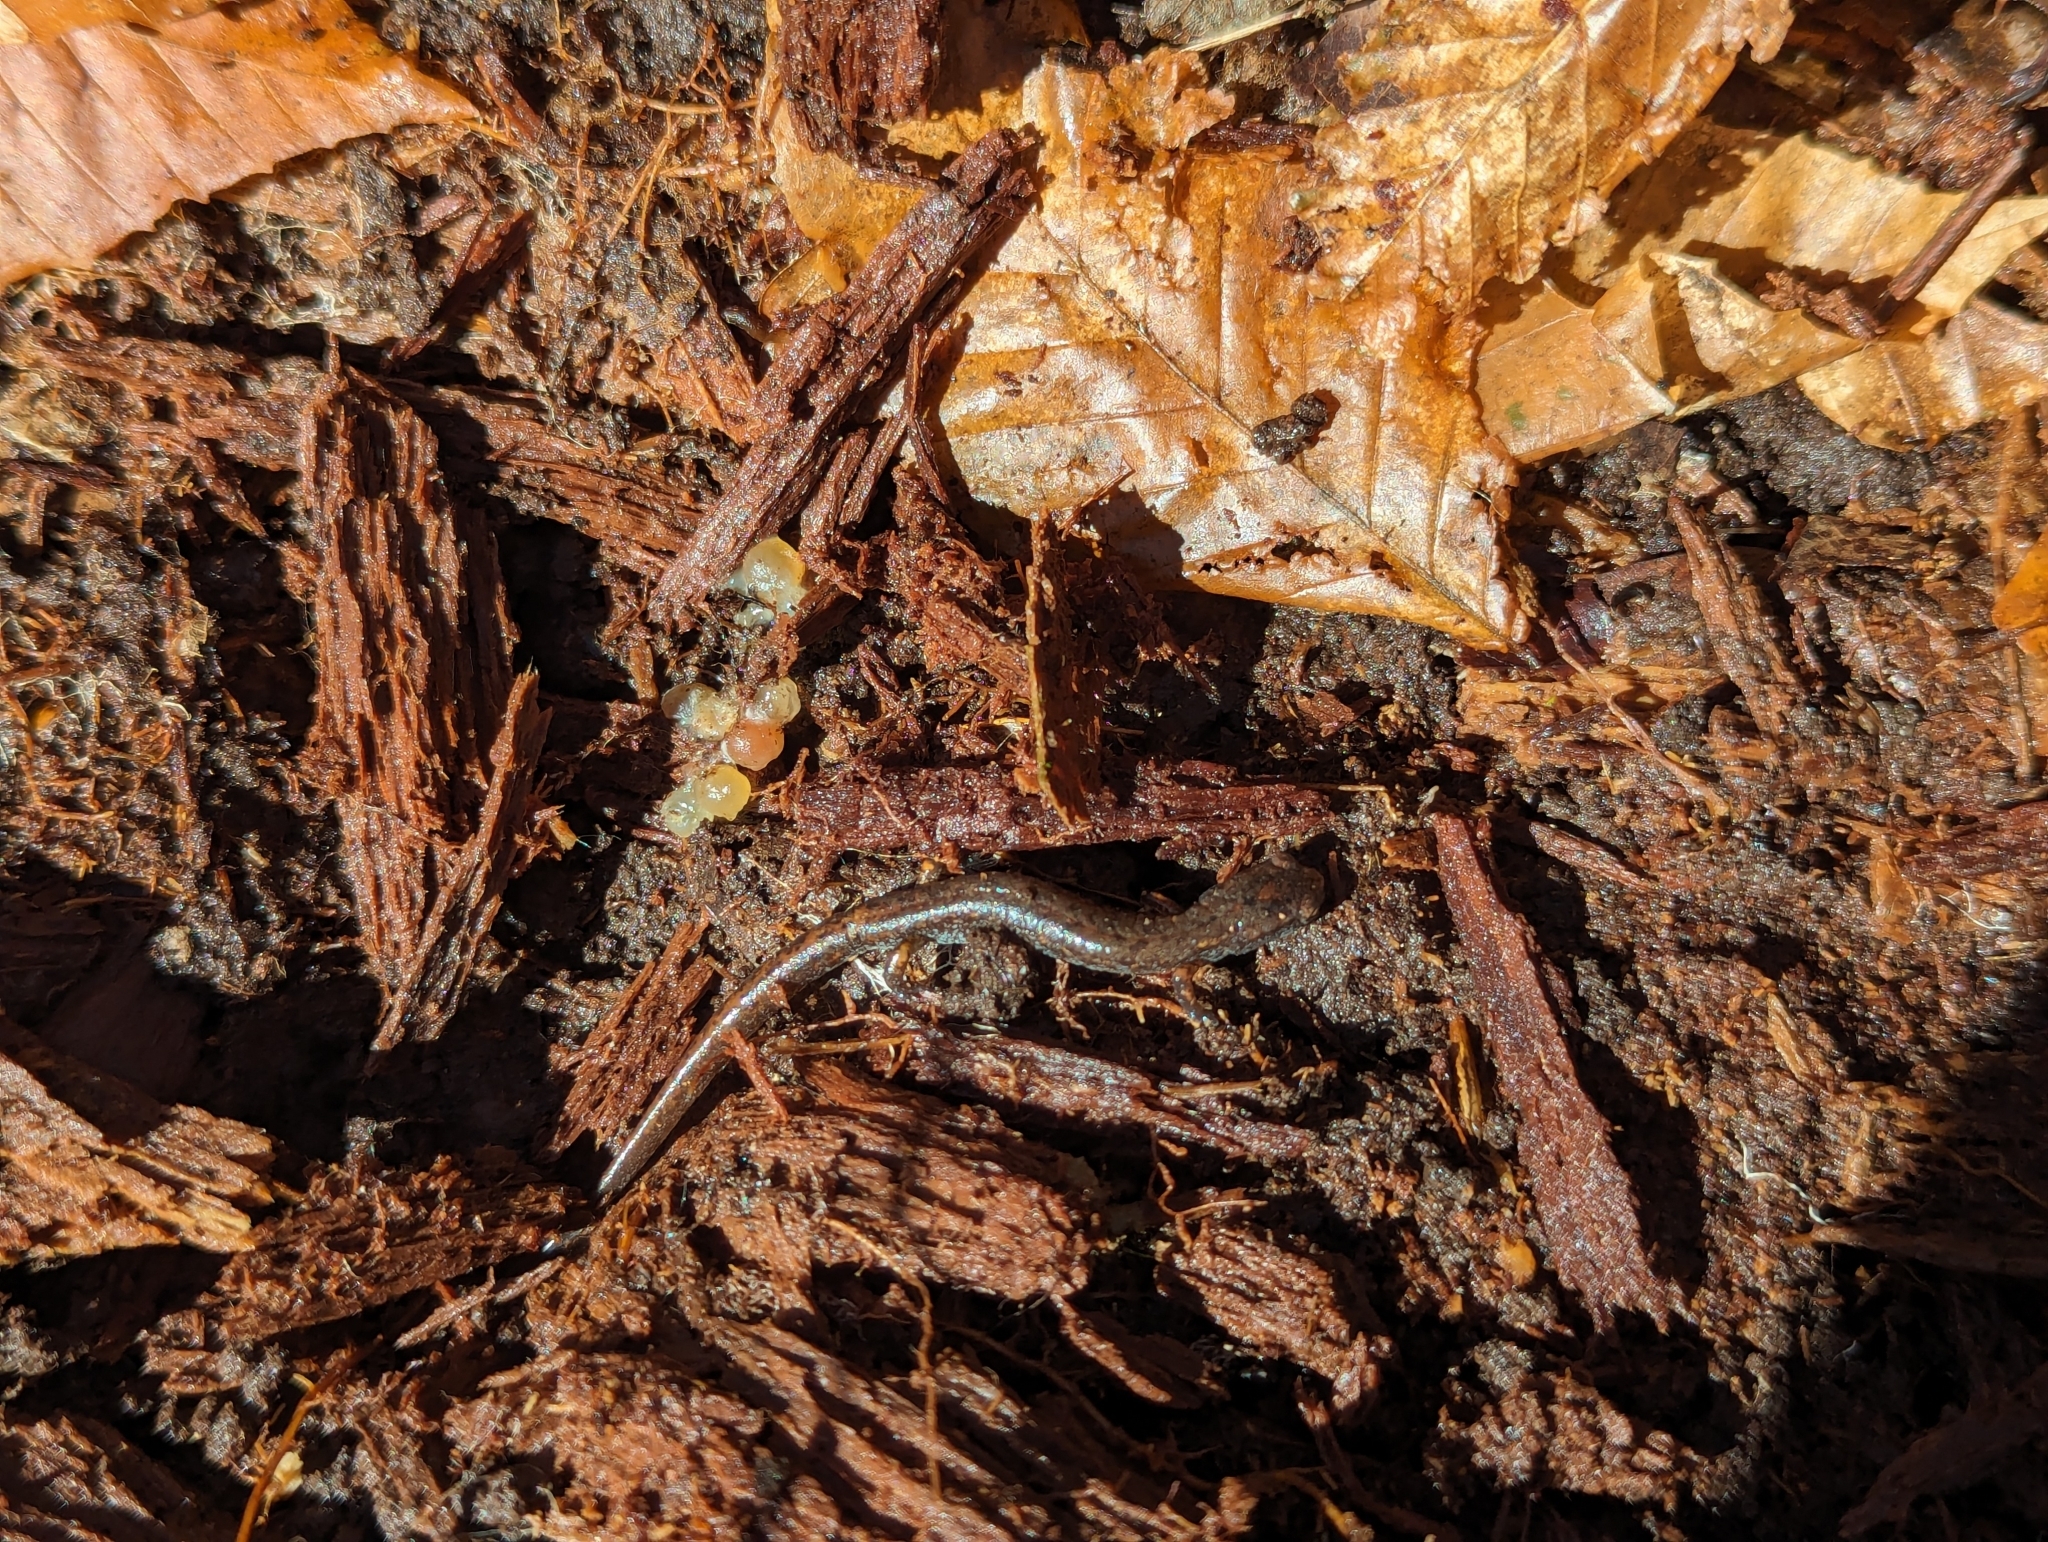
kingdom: Animalia
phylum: Chordata
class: Amphibia
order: Caudata
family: Plethodontidae
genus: Hemidactylium
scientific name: Hemidactylium scutatum
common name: Four-toed salamander
